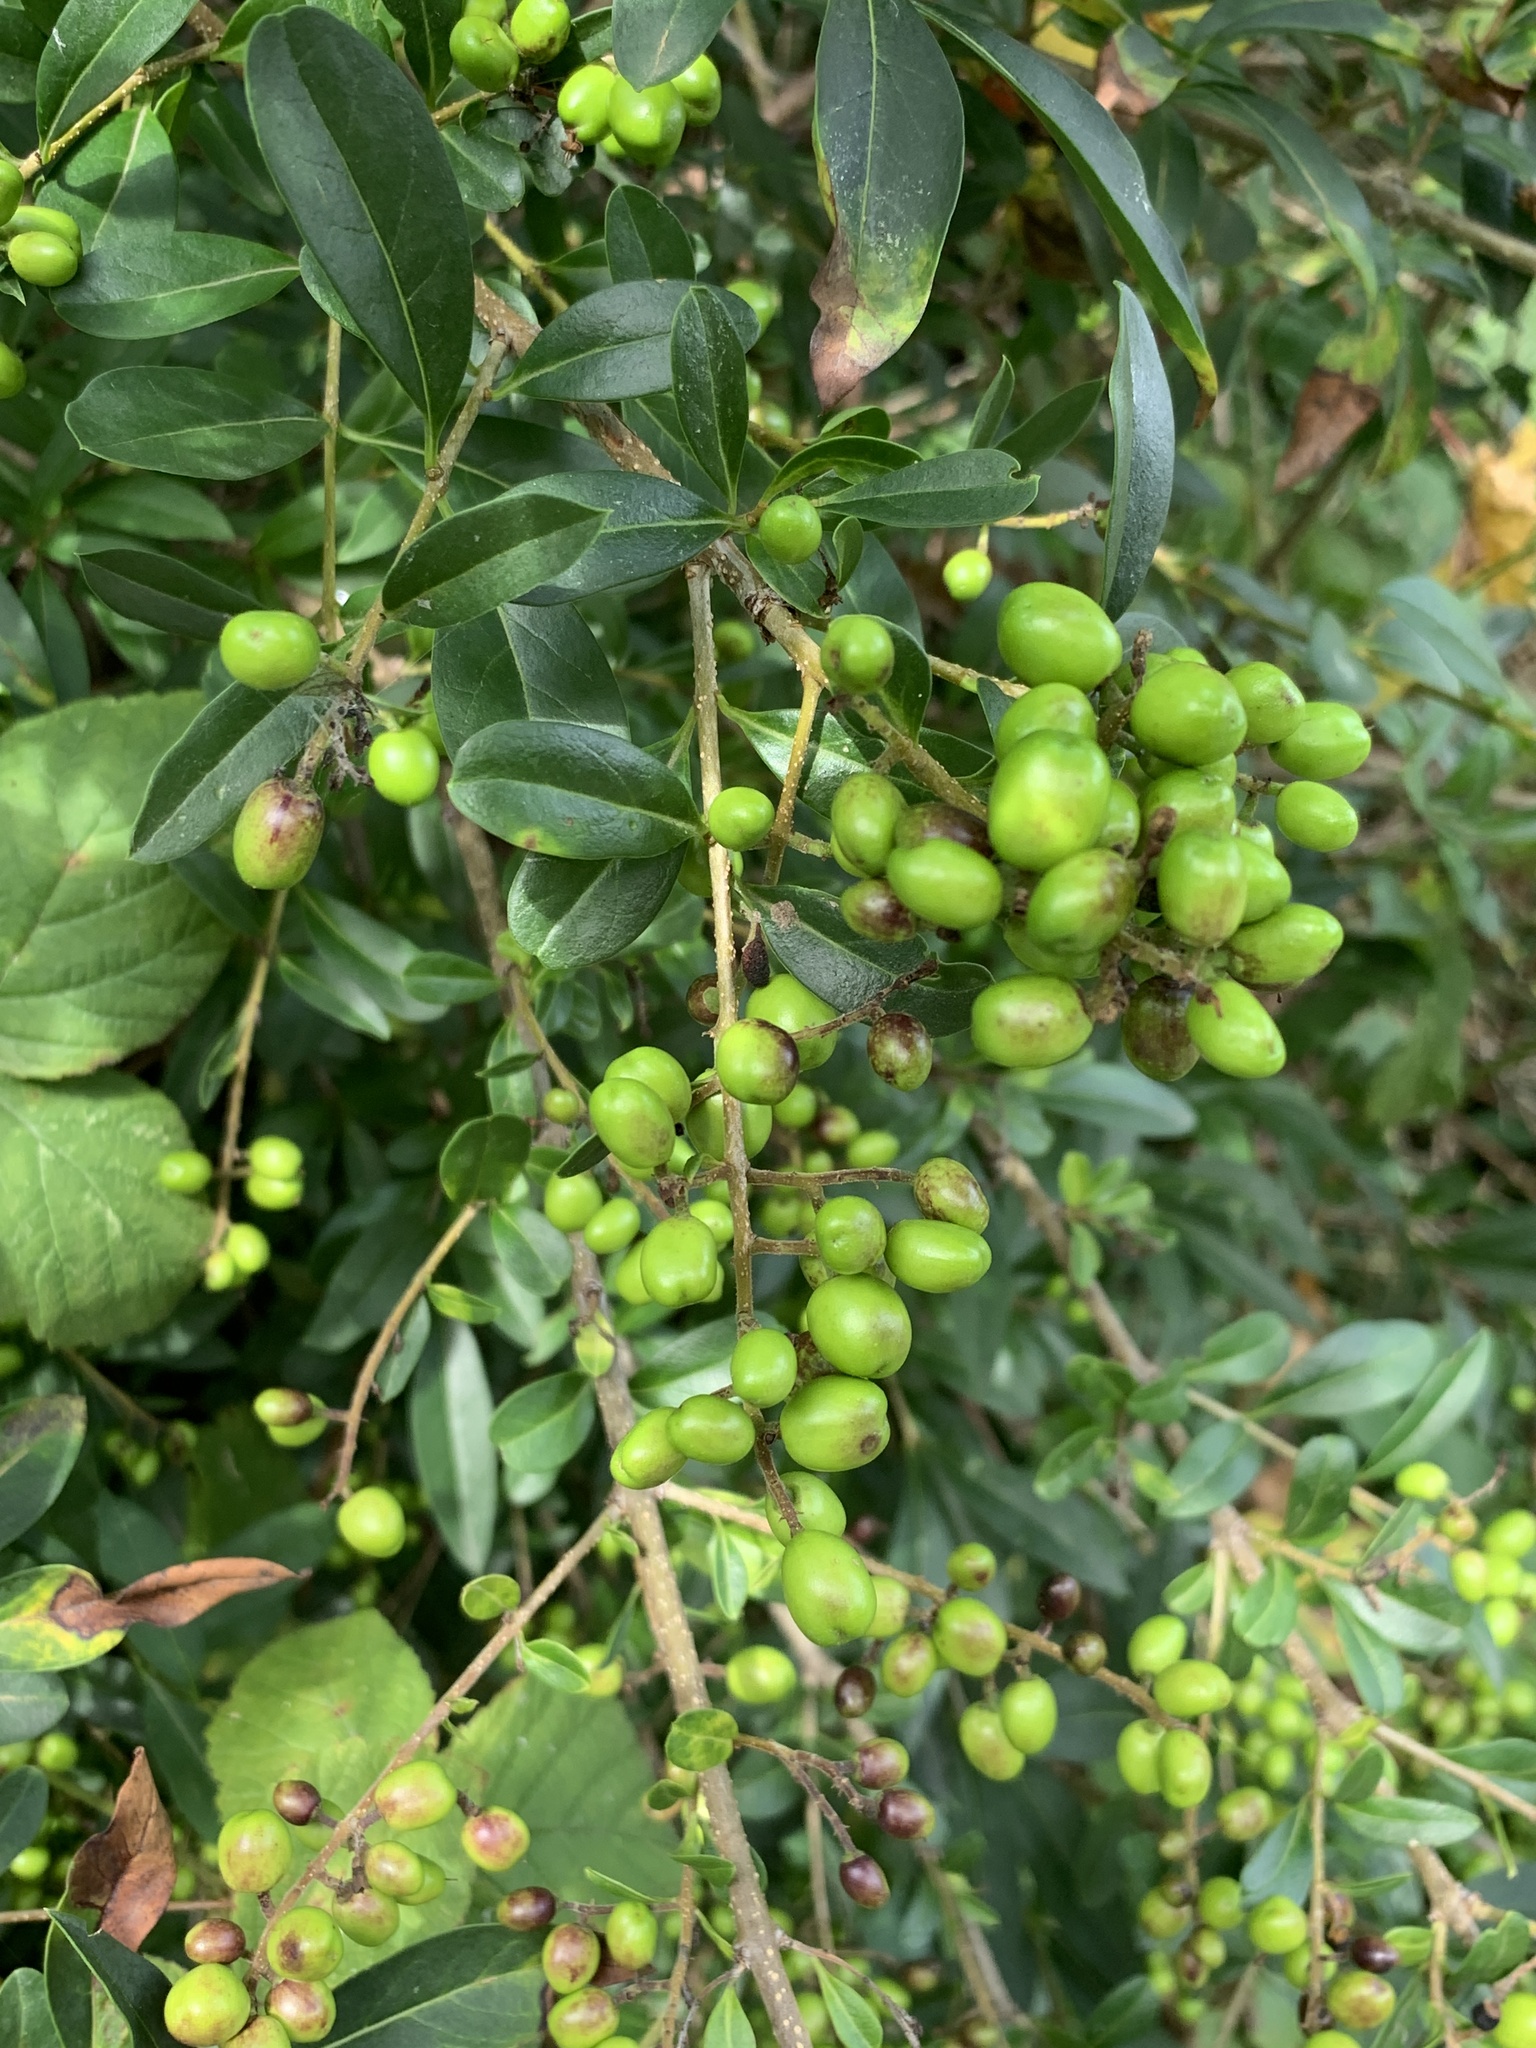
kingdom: Plantae
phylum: Tracheophyta
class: Magnoliopsida
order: Lamiales
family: Oleaceae
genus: Ligustrum
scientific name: Ligustrum vulgare
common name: Wild privet
